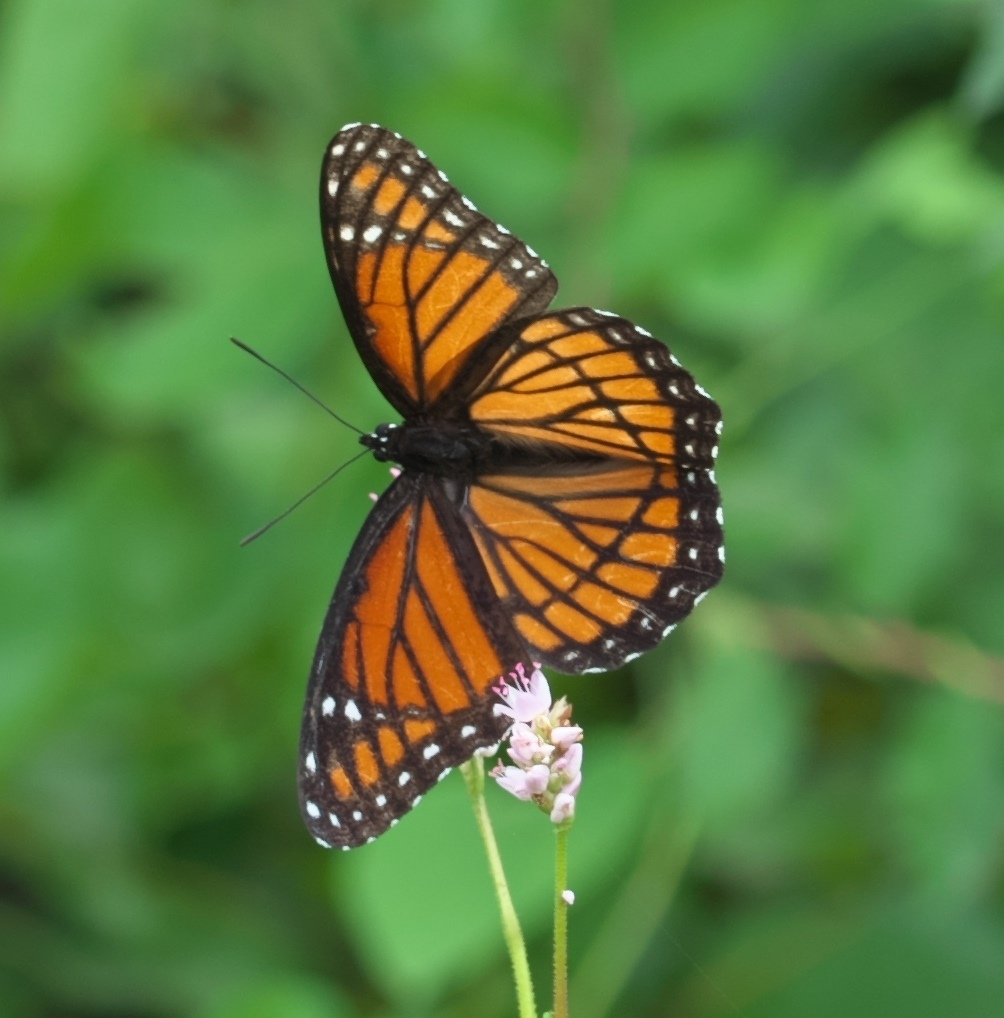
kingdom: Animalia
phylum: Arthropoda
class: Insecta
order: Lepidoptera
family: Nymphalidae
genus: Limenitis
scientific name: Limenitis archippus
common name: Viceroy
